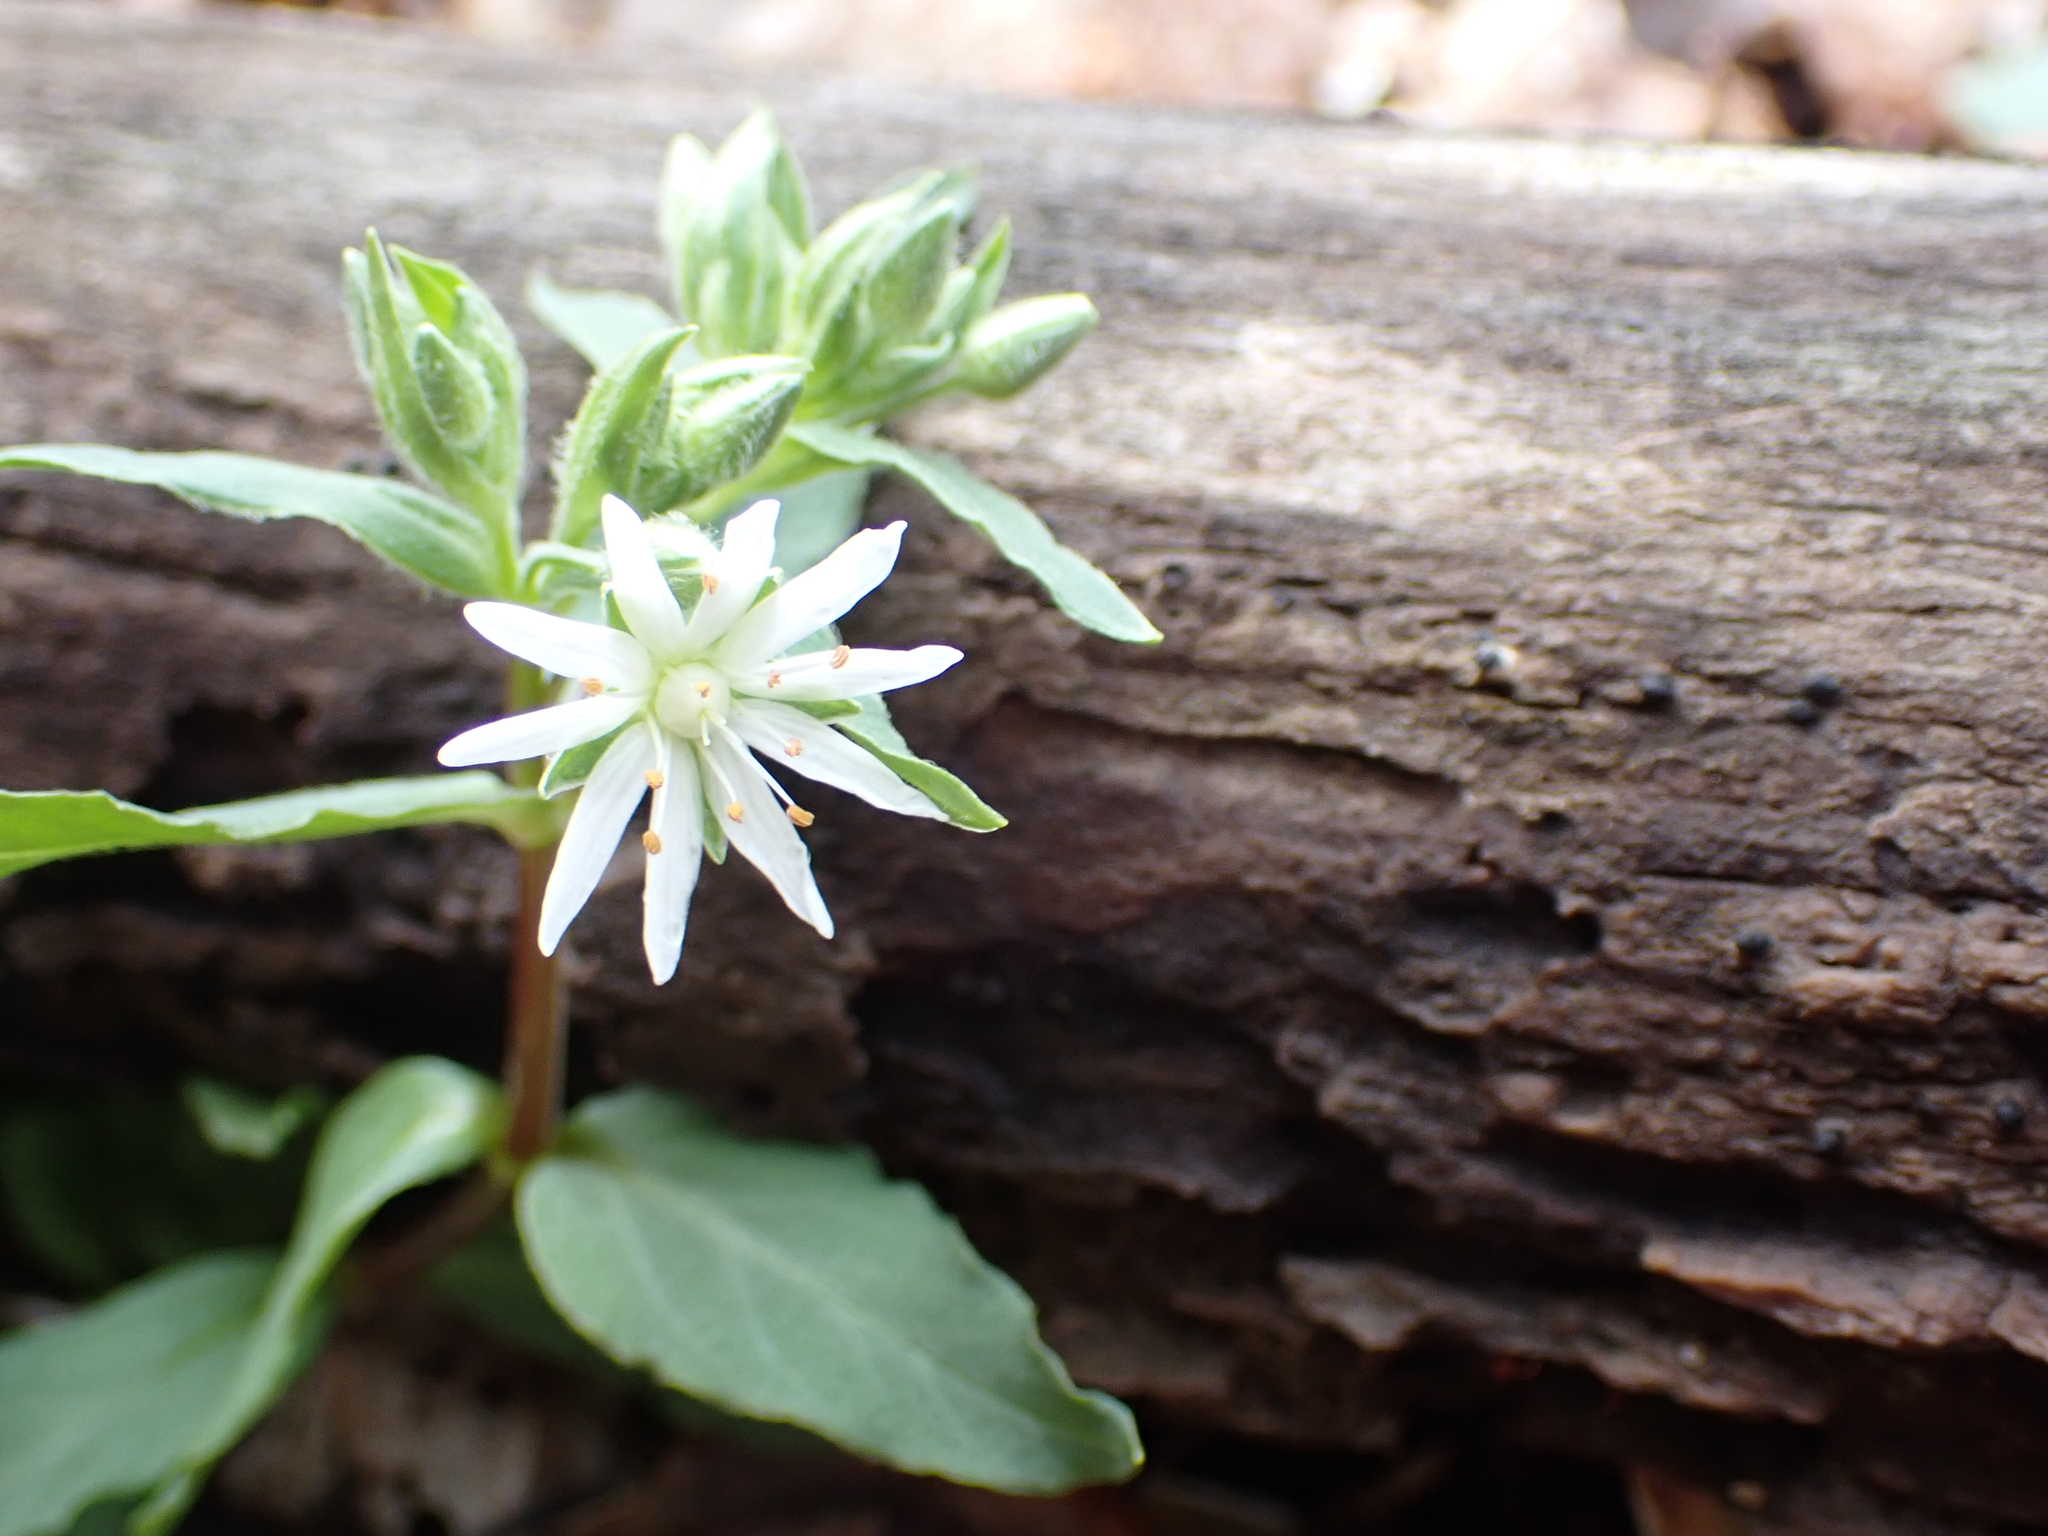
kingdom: Plantae
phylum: Tracheophyta
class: Magnoliopsida
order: Caryophyllales
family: Caryophyllaceae
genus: Stellaria
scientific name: Stellaria pubera
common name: Star chickweed
